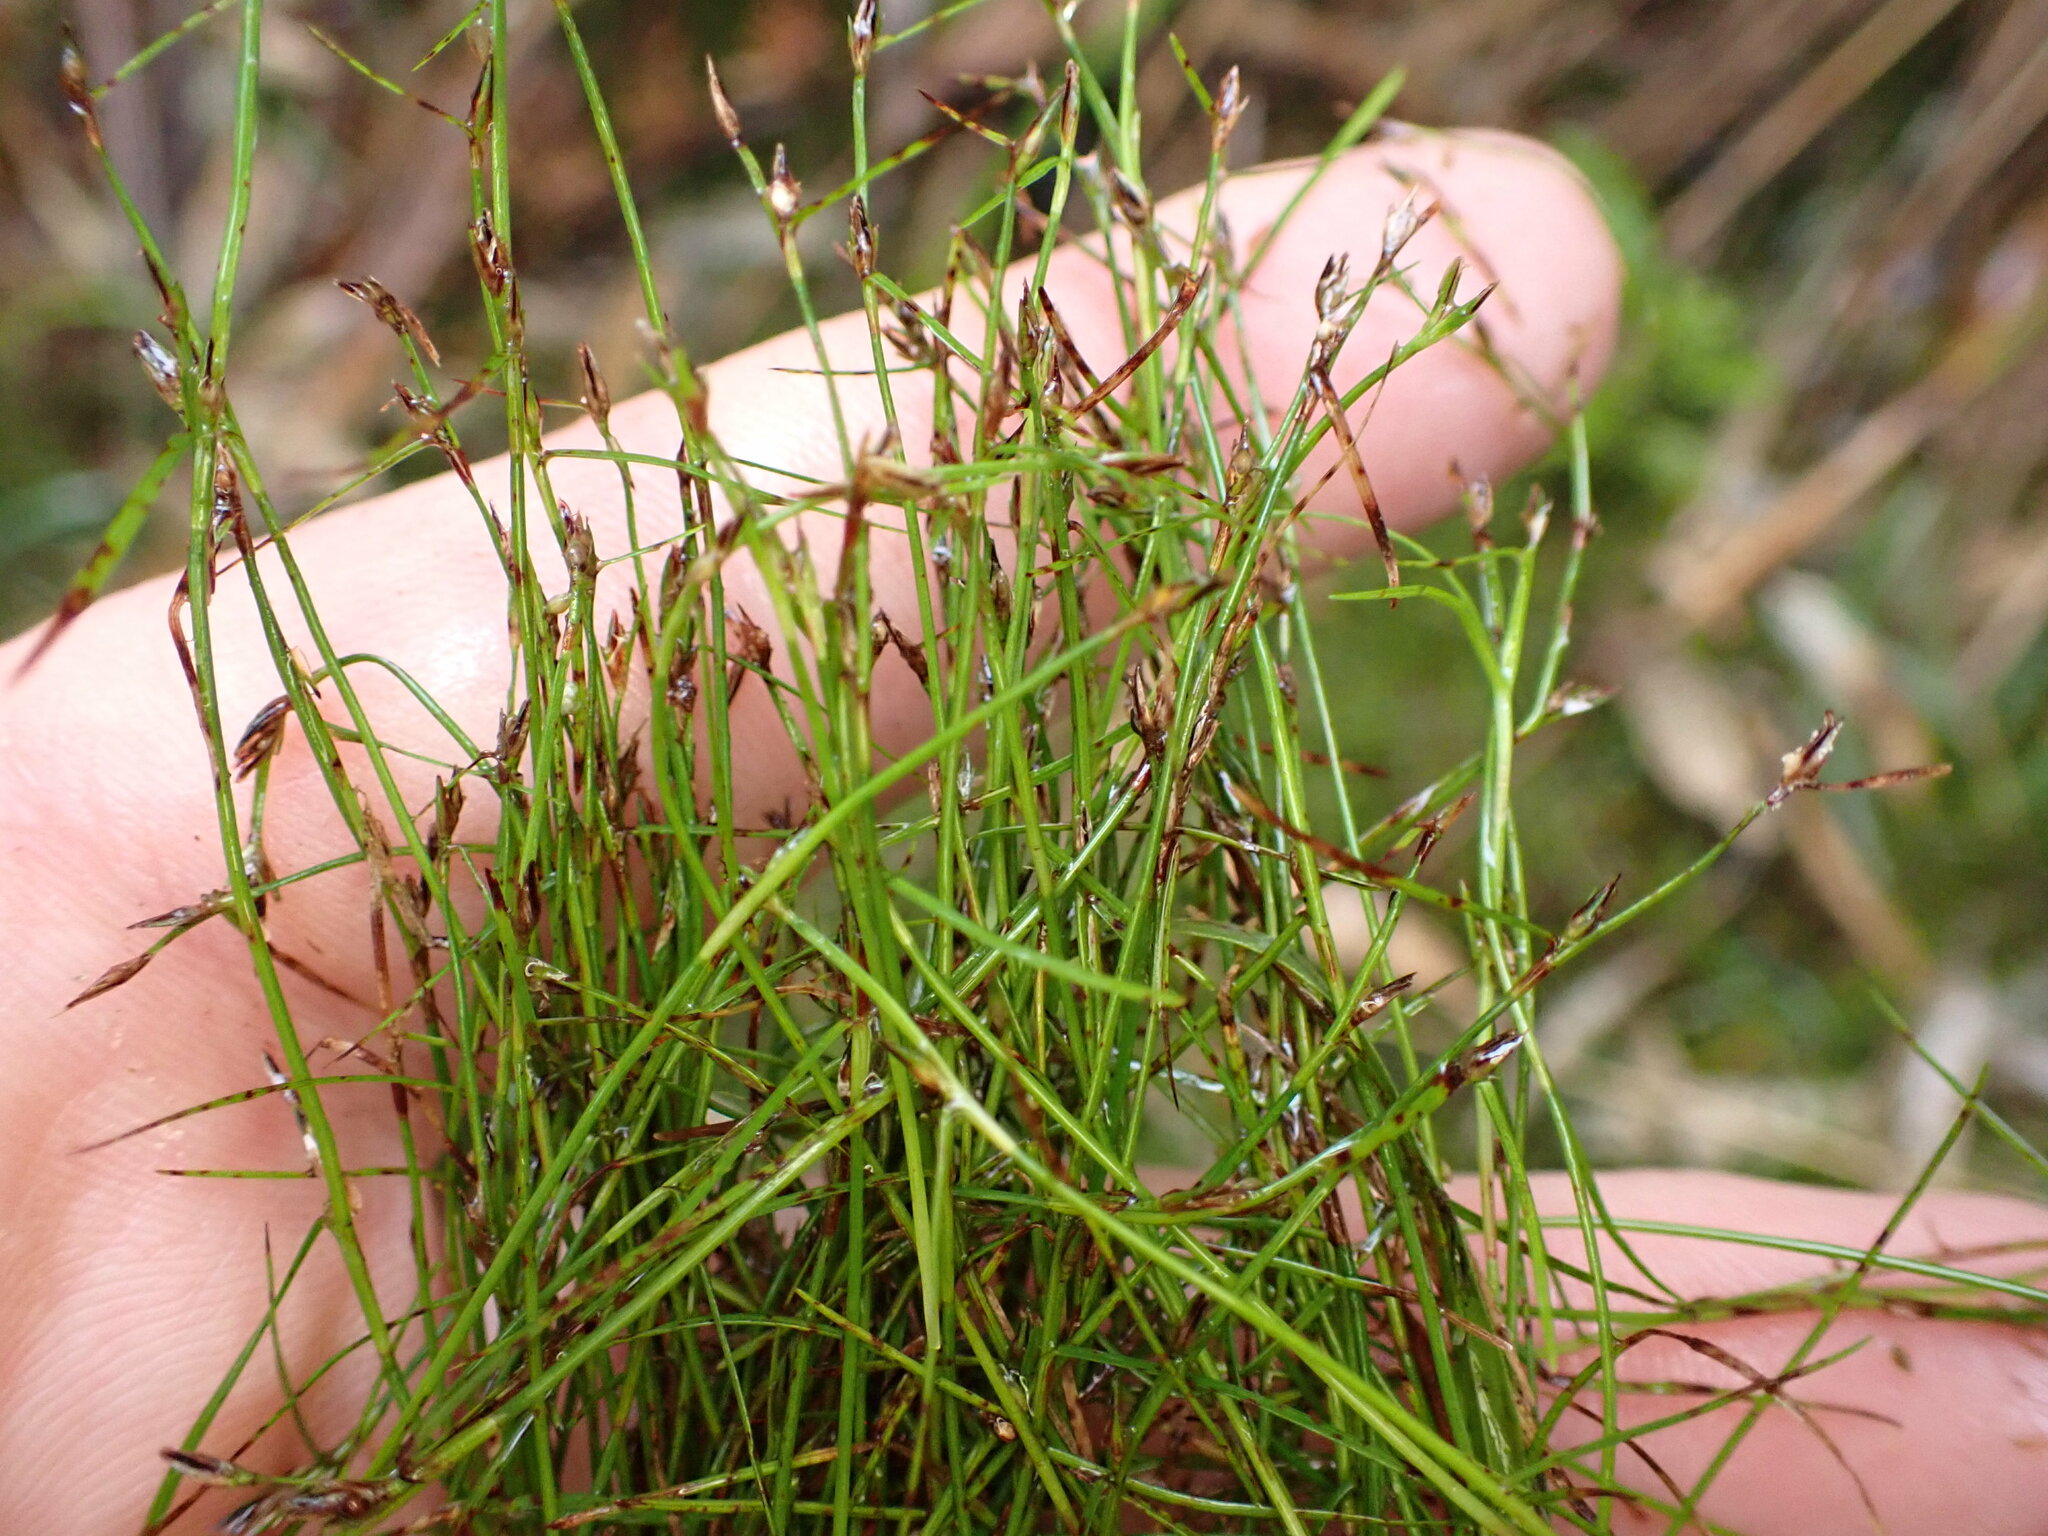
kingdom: Plantae
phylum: Tracheophyta
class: Liliopsida
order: Poales
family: Cyperaceae
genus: Schoenus
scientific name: Schoenus maschalinus
